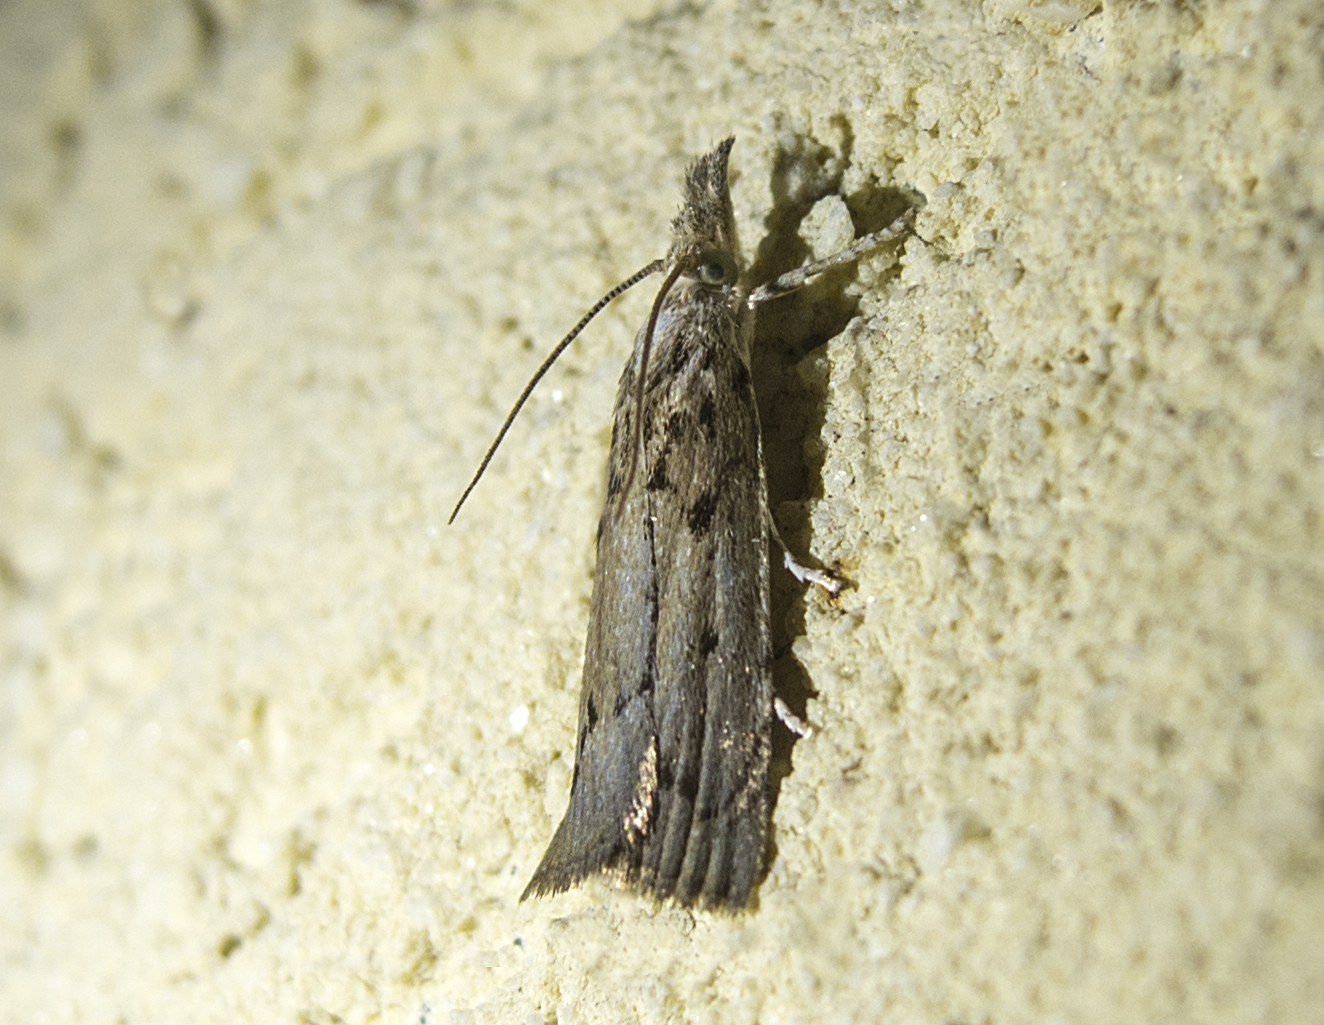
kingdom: Animalia
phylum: Arthropoda
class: Insecta
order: Lepidoptera
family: Crambidae
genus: Agriphila
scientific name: Agriphila tersellus
